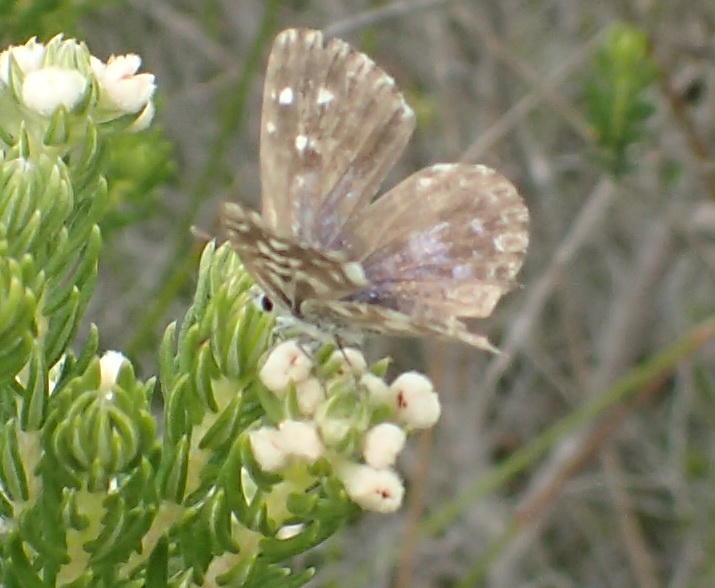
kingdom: Animalia
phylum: Arthropoda
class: Insecta
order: Lepidoptera
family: Lycaenidae
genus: Tarucus
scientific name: Tarucus thespis
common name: Vivid dotted blue
